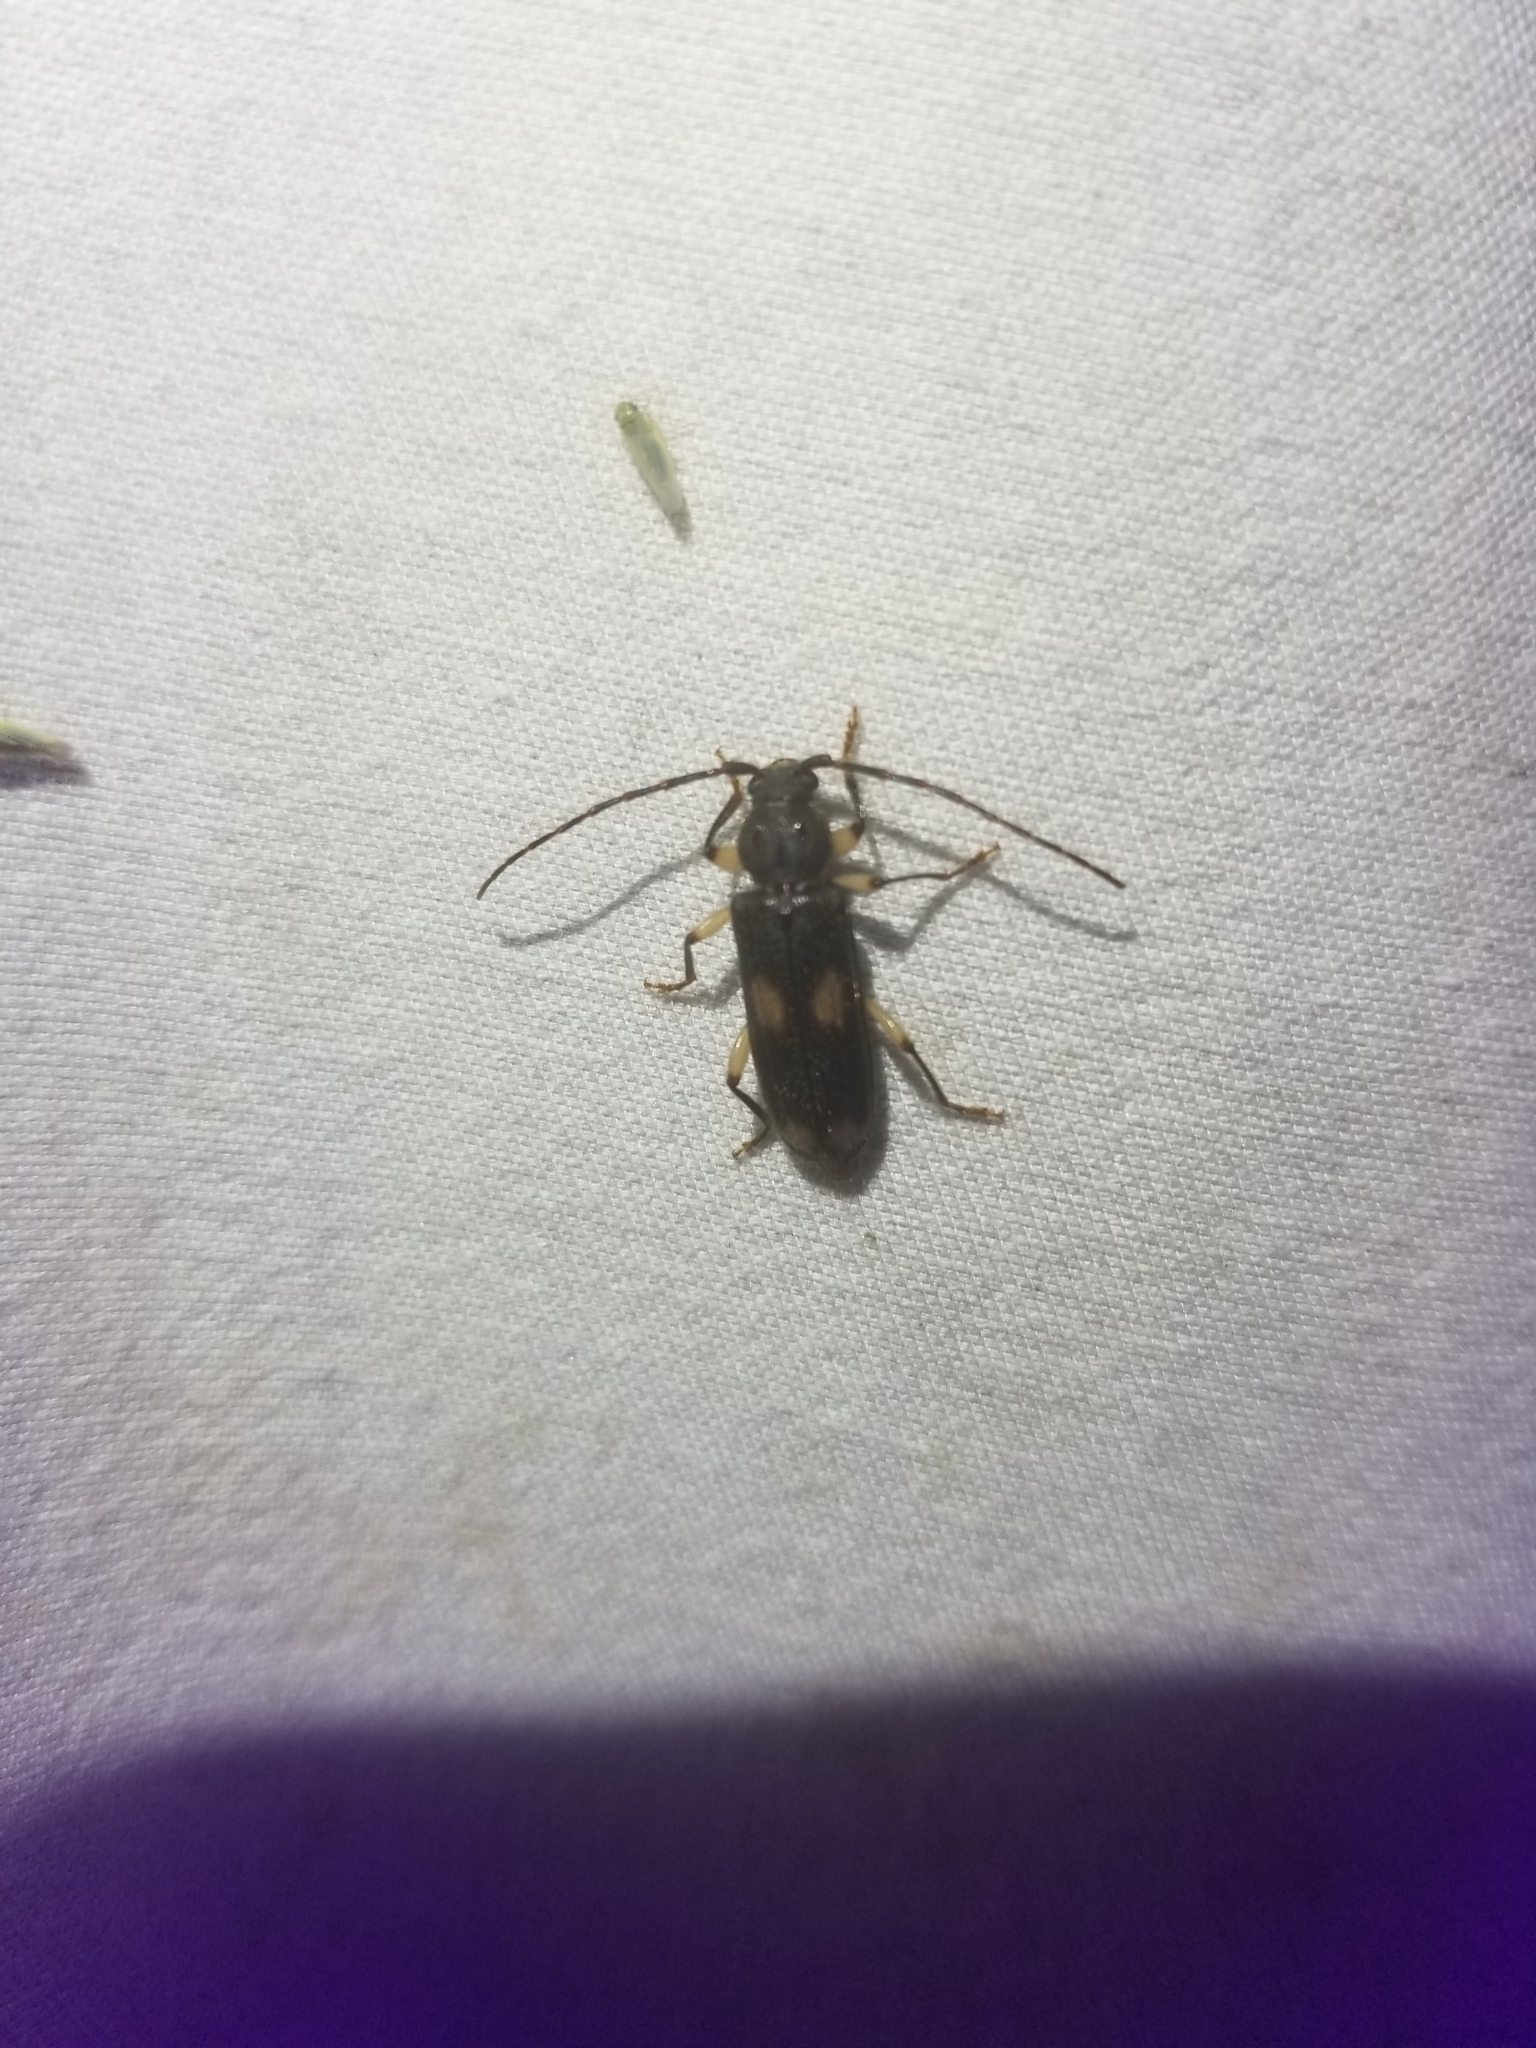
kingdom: Animalia
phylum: Arthropoda
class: Insecta
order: Coleoptera
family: Cerambycidae
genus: Tylonotus
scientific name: Tylonotus bimaculatus
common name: Ash and privet borer
